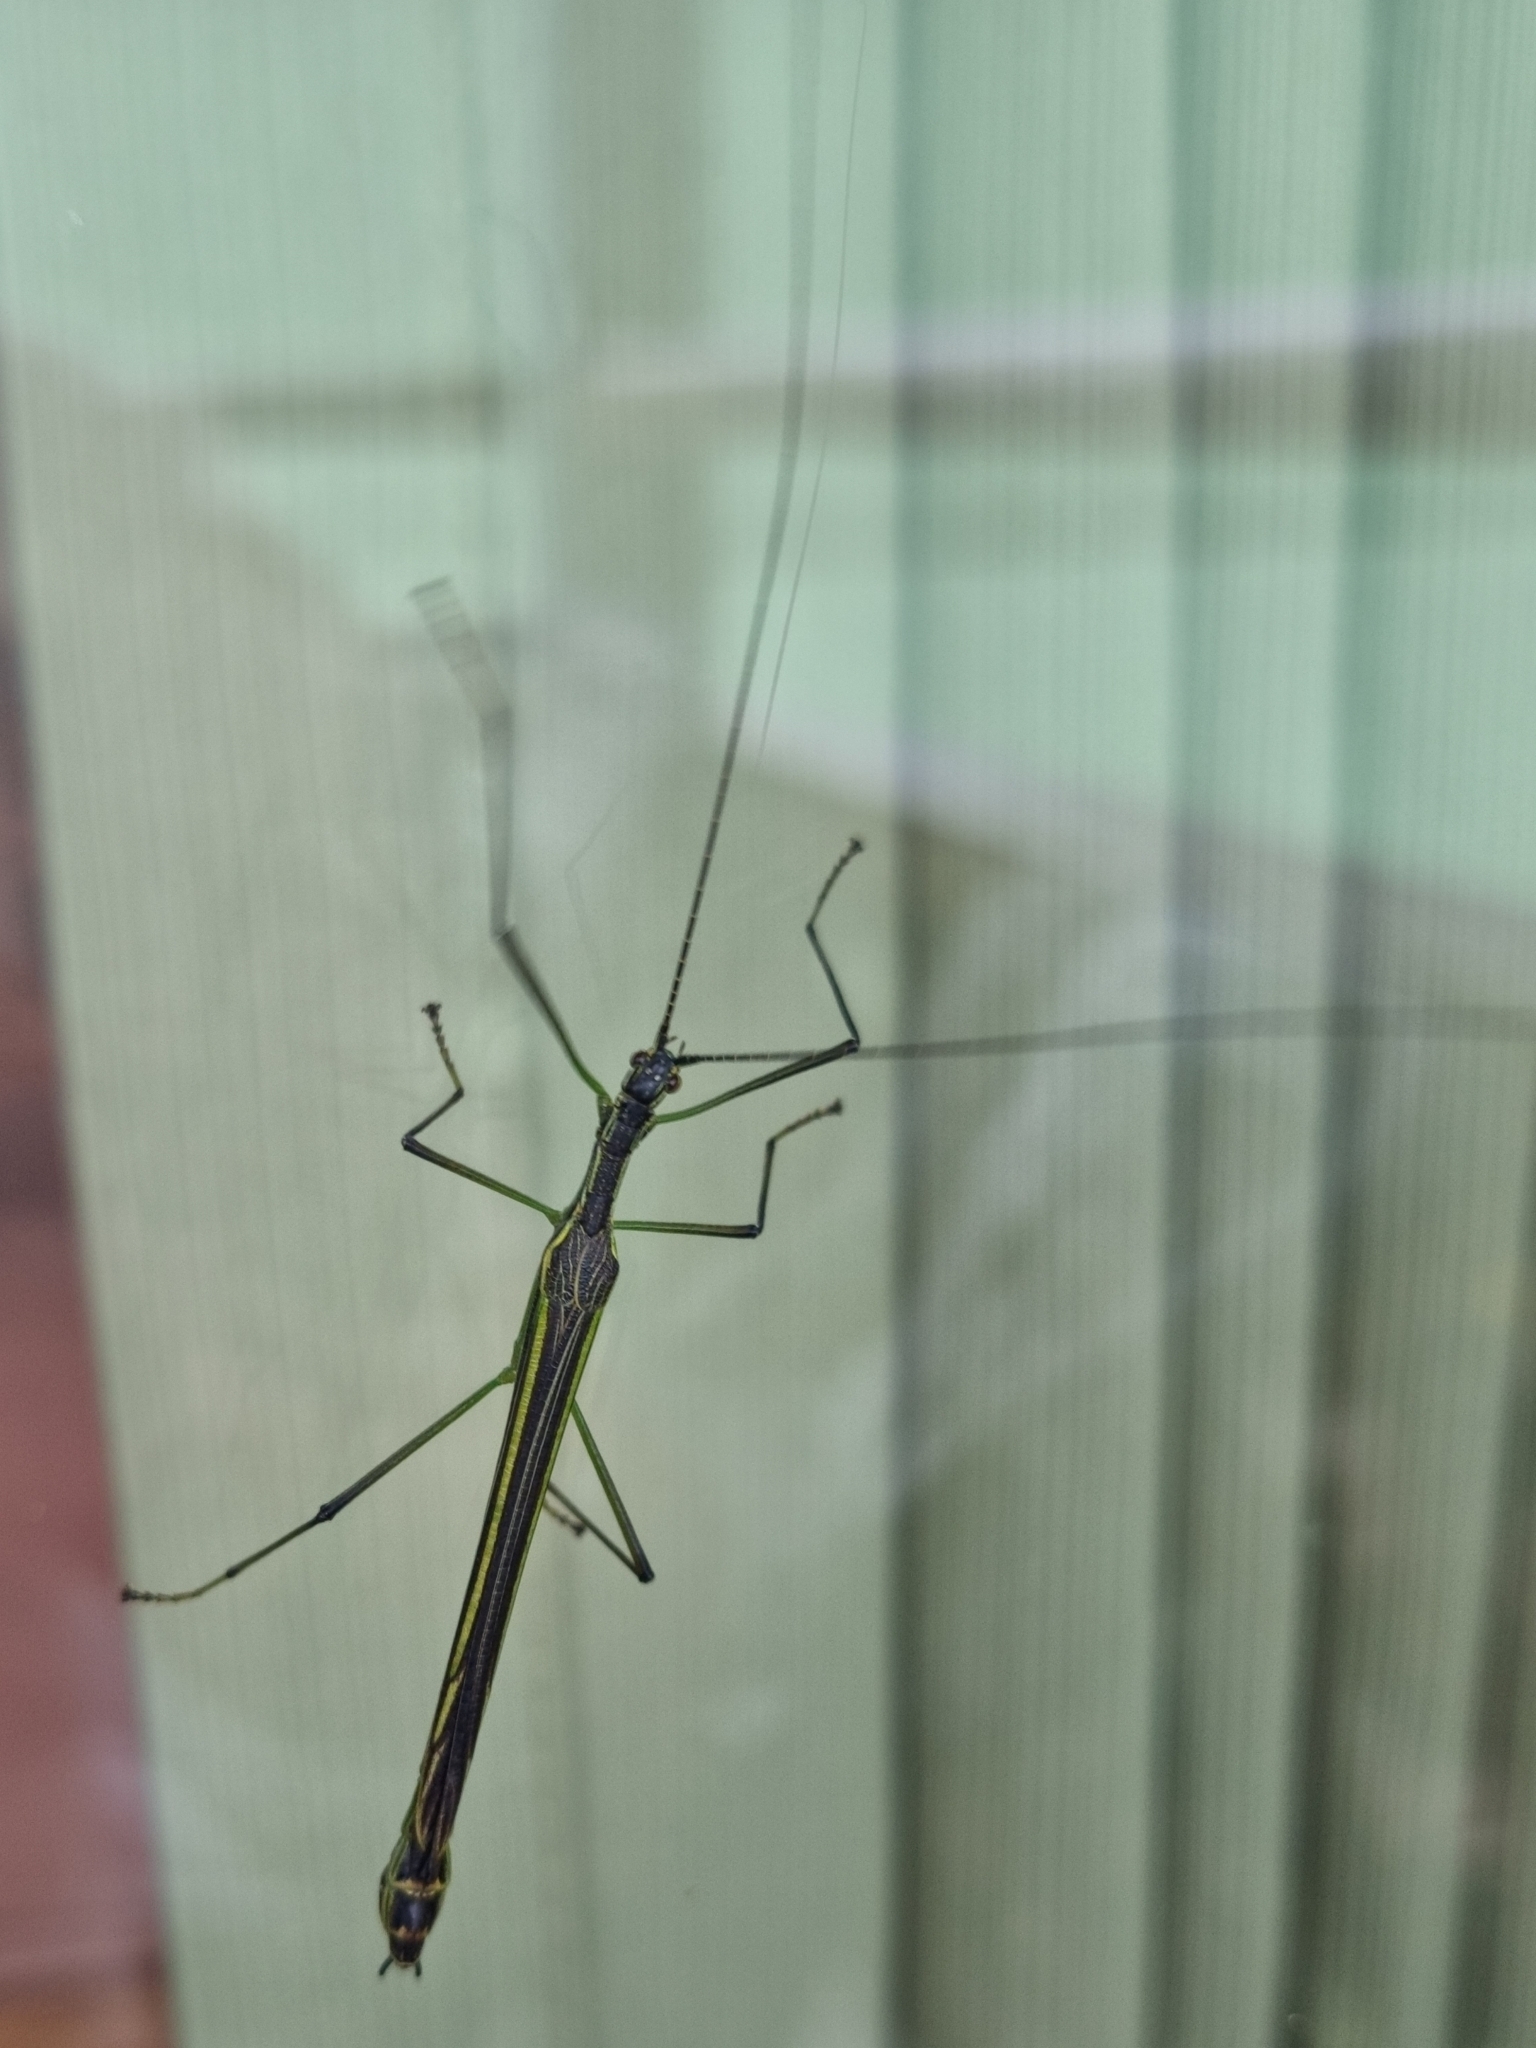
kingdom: Animalia
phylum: Arthropoda
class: Insecta
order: Phasmida
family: Pseudophasmatidae
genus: Brizoides
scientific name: Brizoides nigricornis
